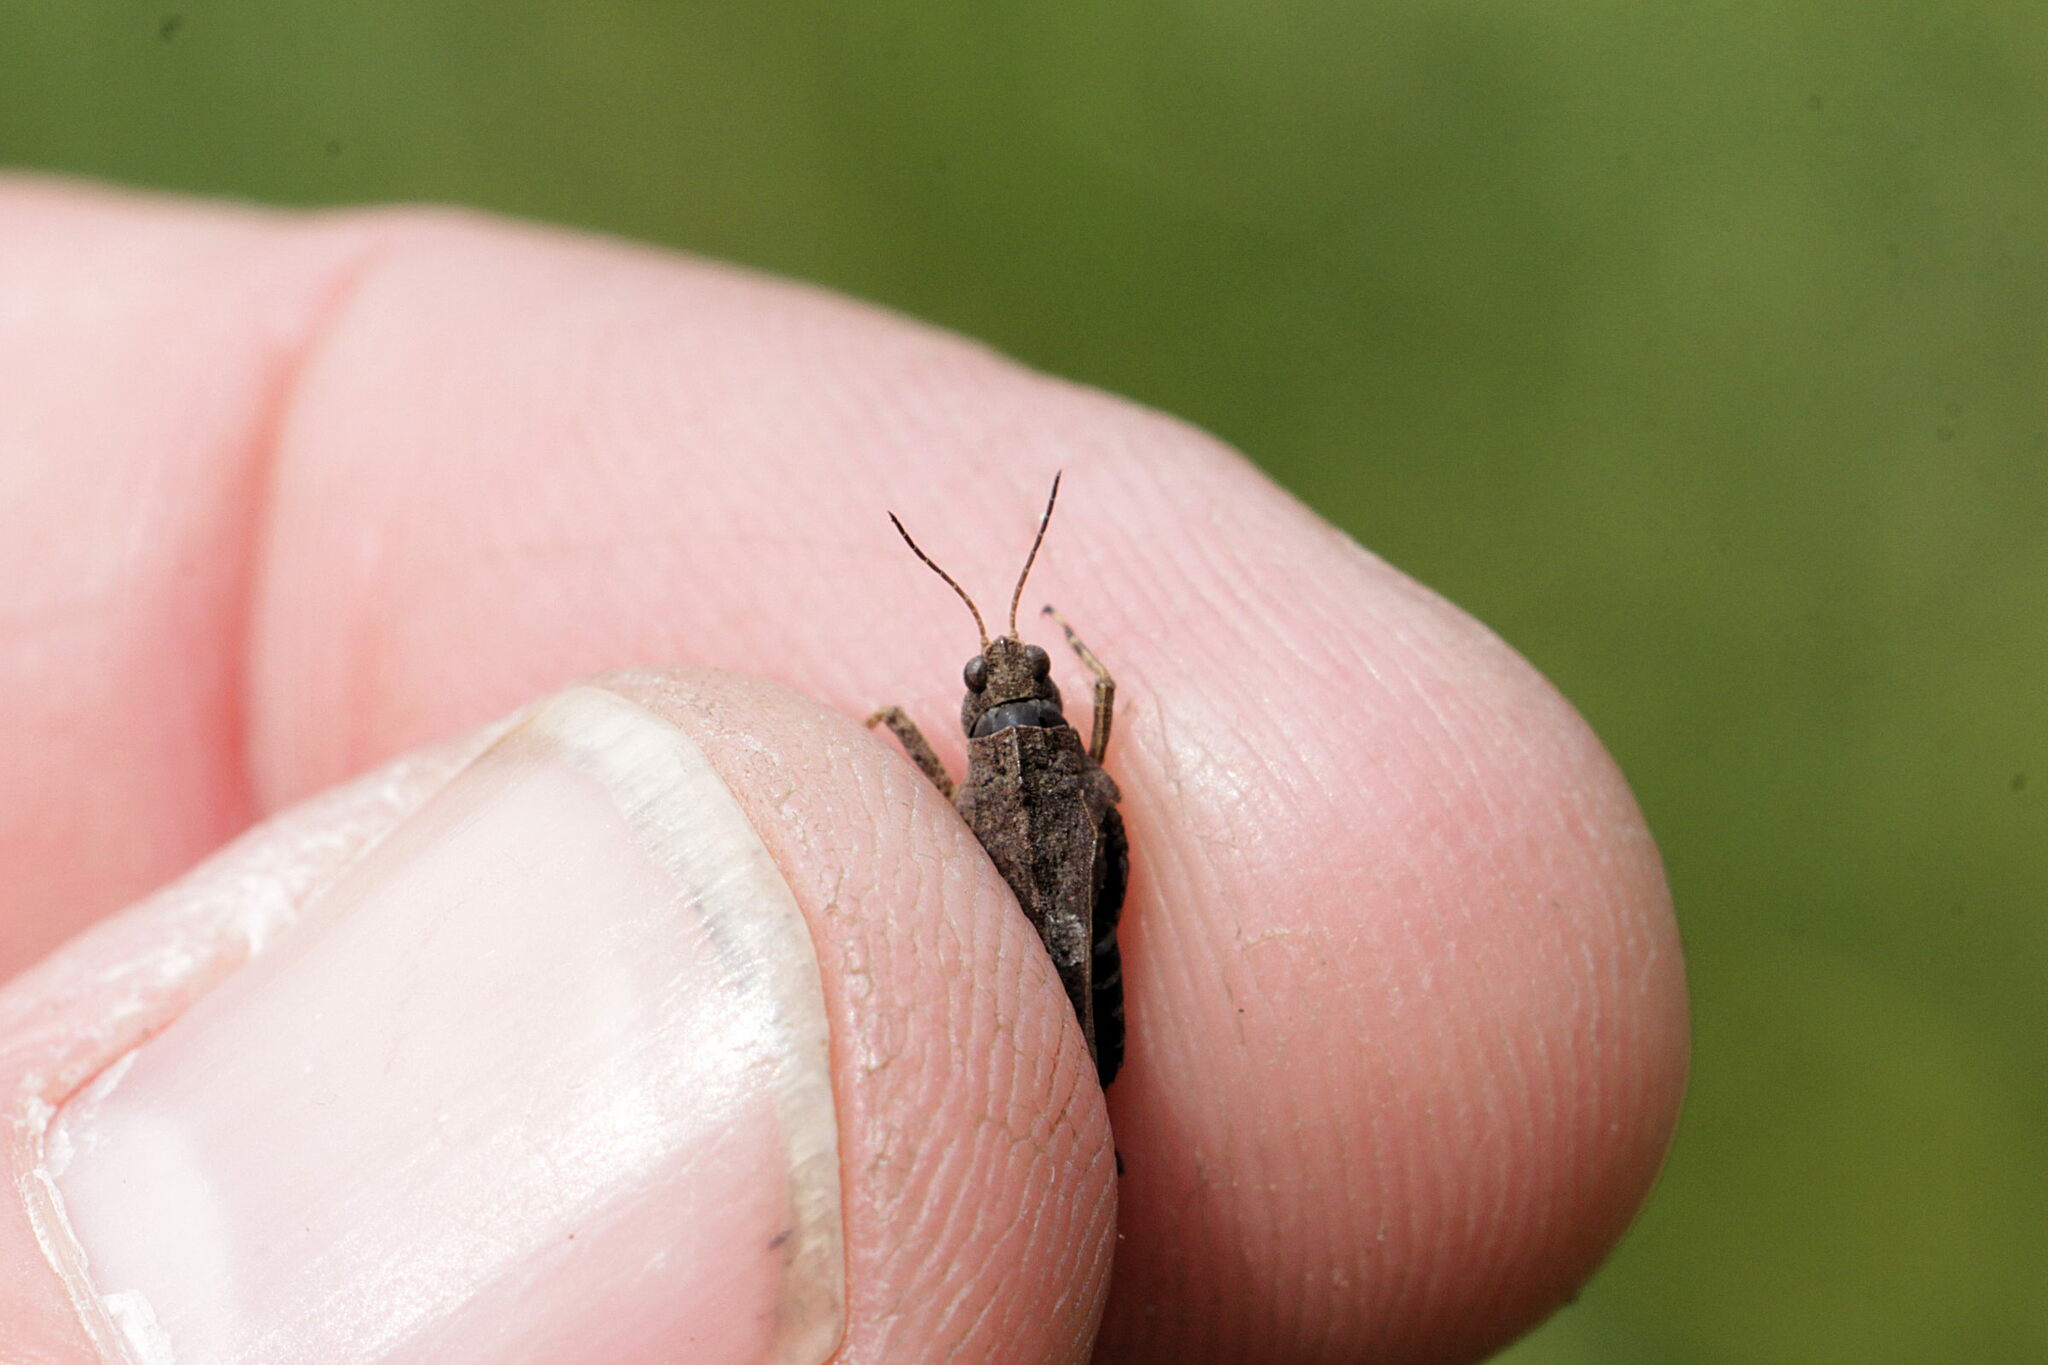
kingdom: Animalia
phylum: Arthropoda
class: Insecta
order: Orthoptera
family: Tetrigidae
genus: Tetrix
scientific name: Tetrix undulata
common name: Common groundhopper
